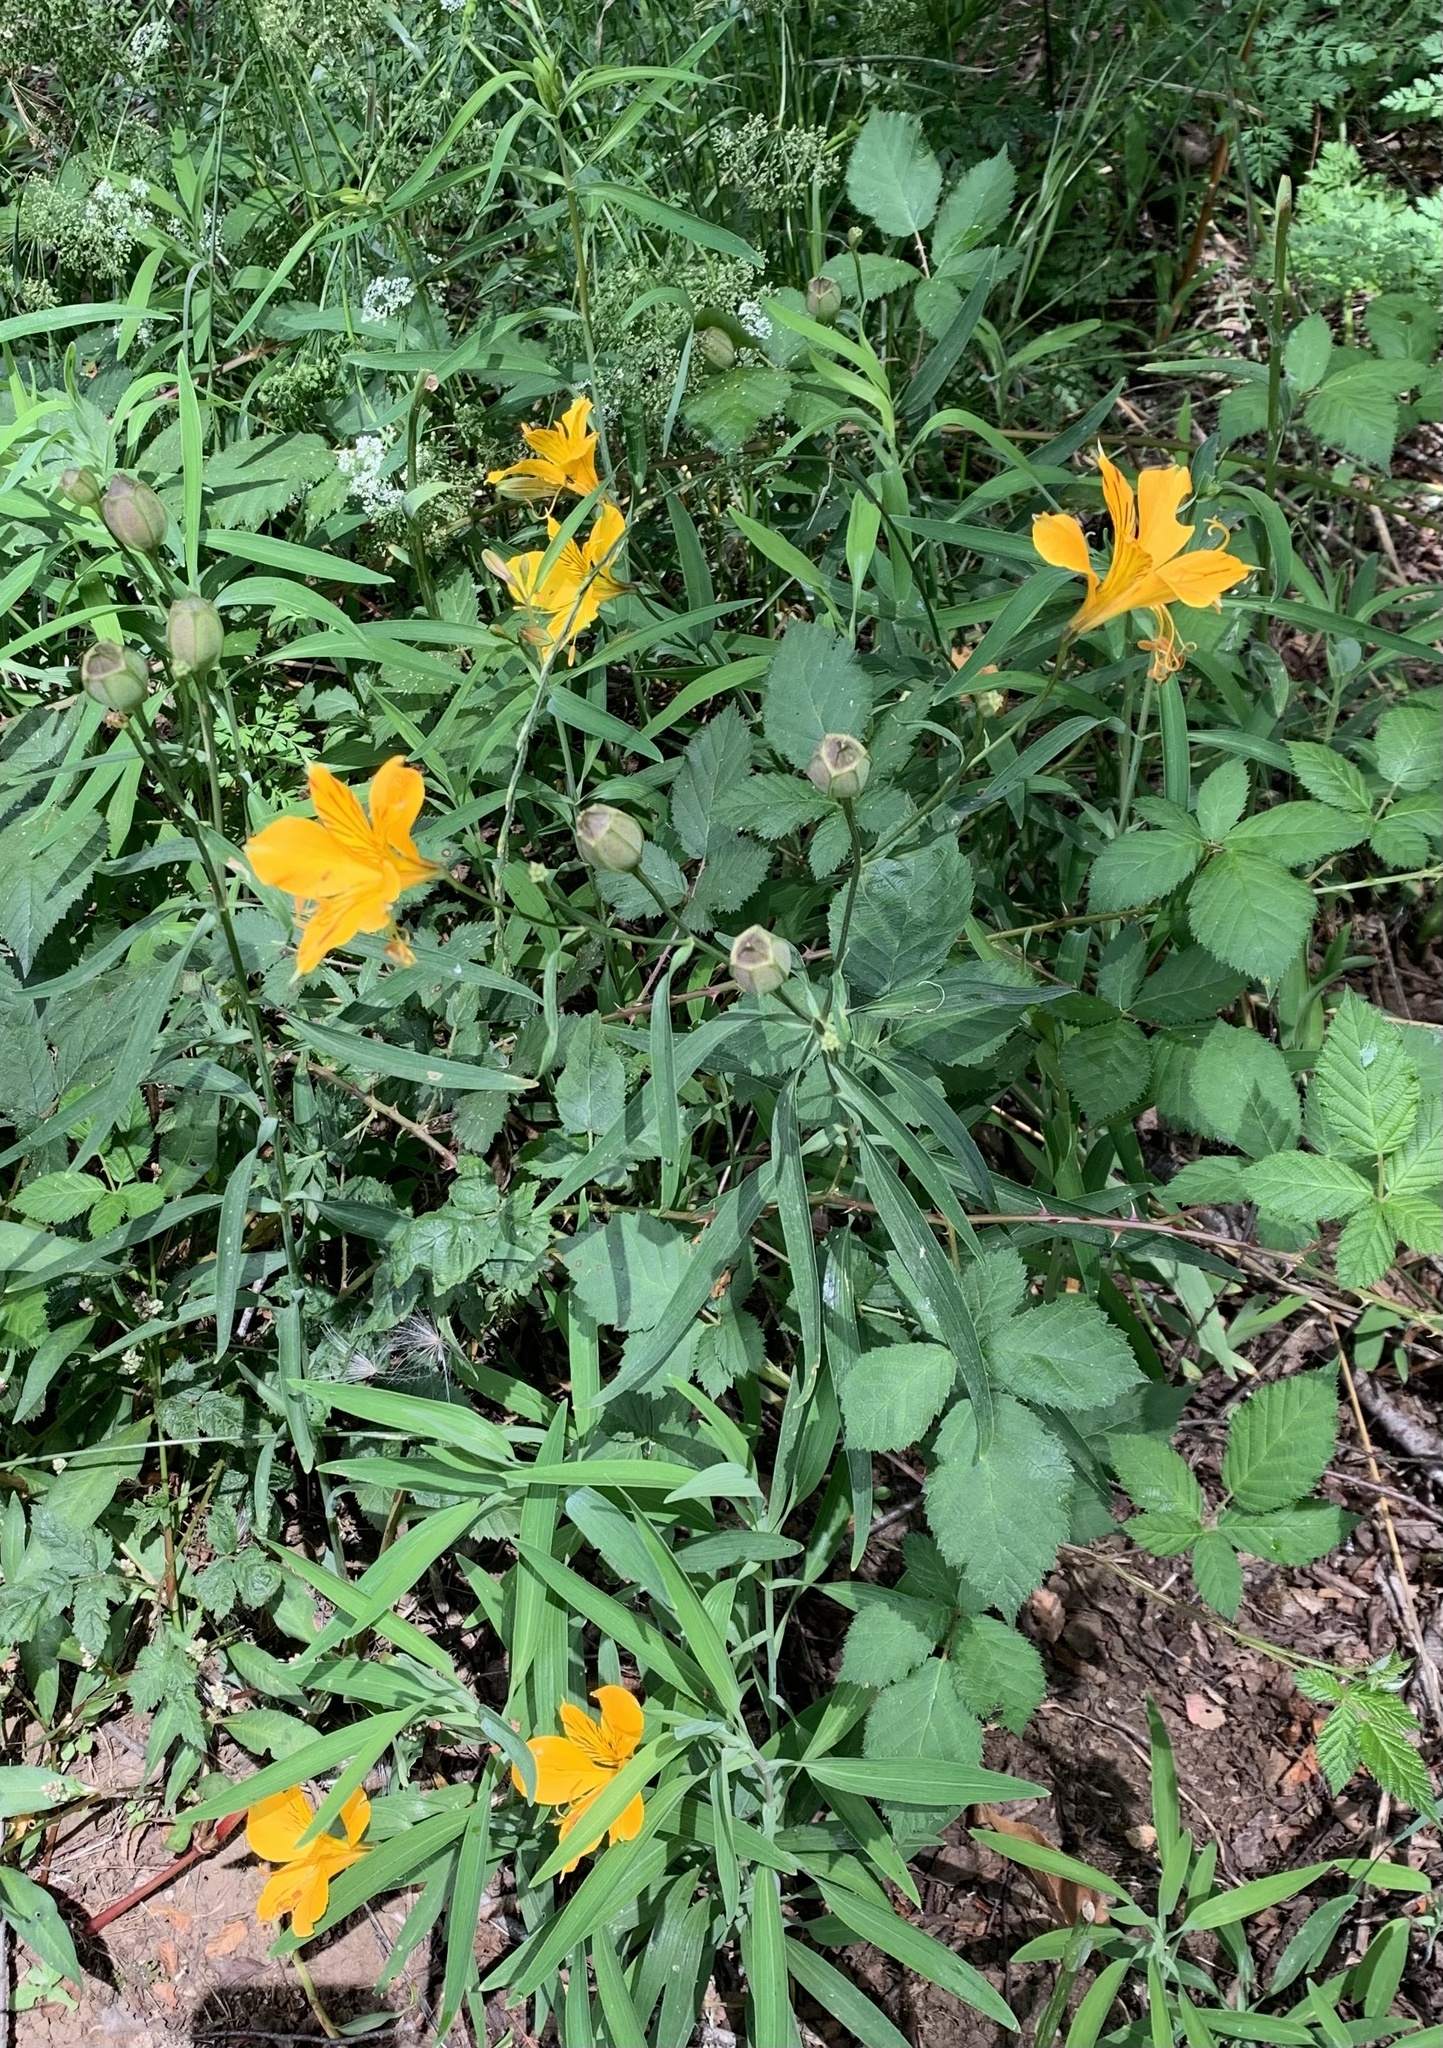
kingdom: Plantae
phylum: Tracheophyta
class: Liliopsida
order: Liliales
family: Alstroemeriaceae
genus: Alstroemeria
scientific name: Alstroemeria aurea
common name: Peruvian lily
